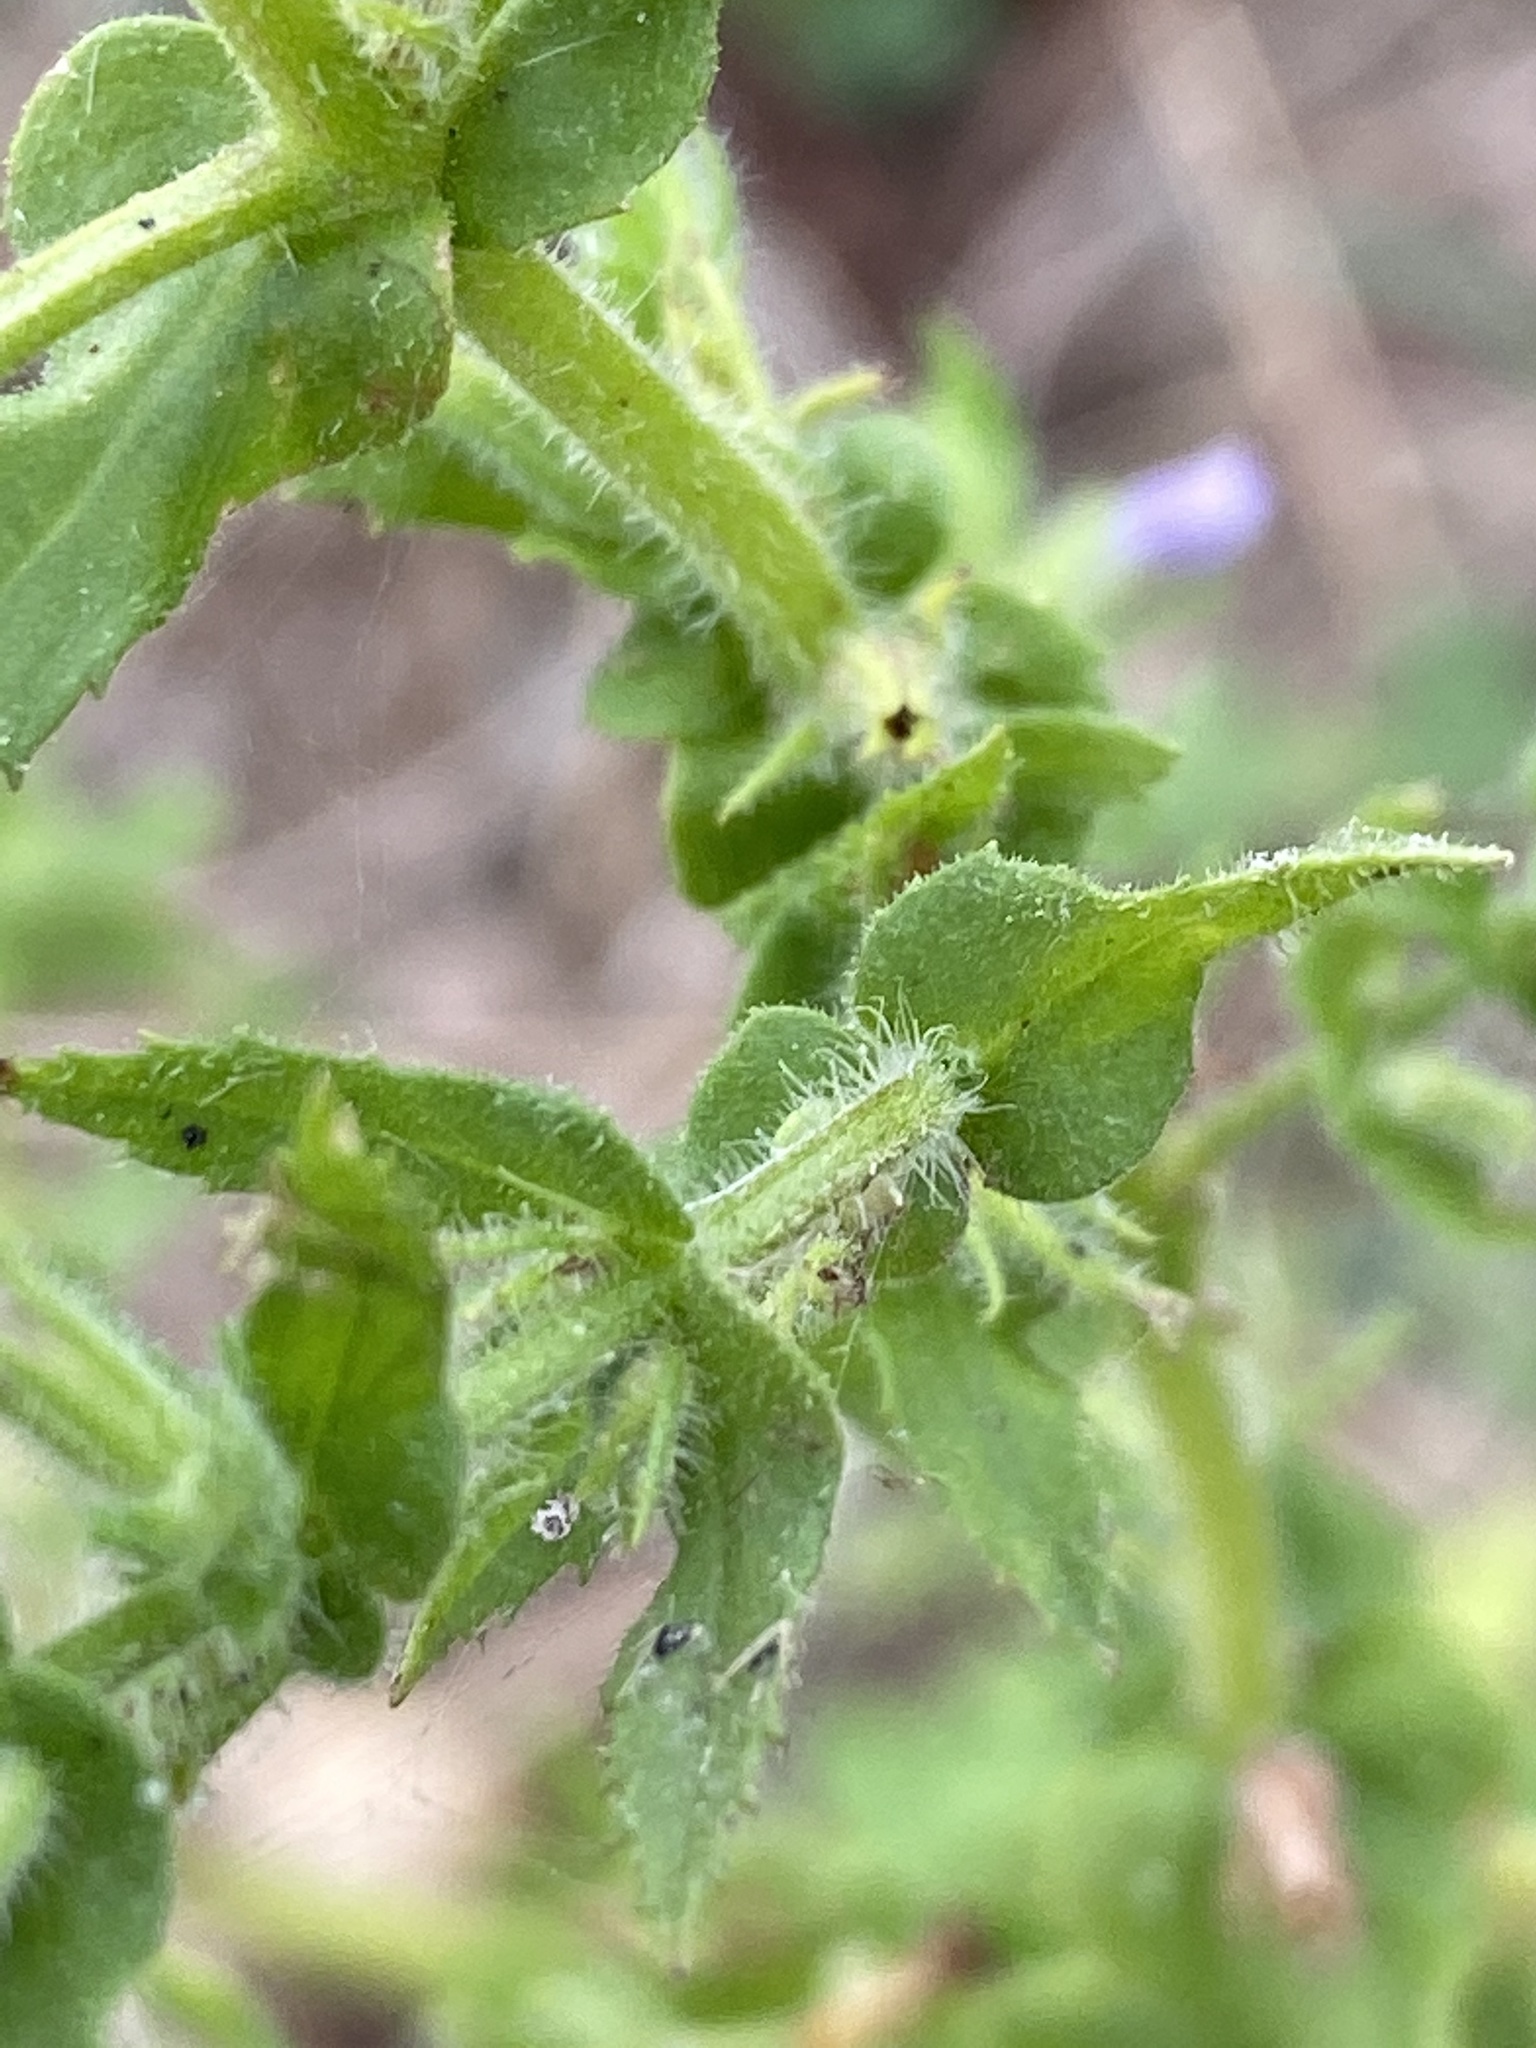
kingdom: Plantae
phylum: Tracheophyta
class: Magnoliopsida
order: Lamiales
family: Plantaginaceae
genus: Stemodia
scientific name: Stemodia maritima
